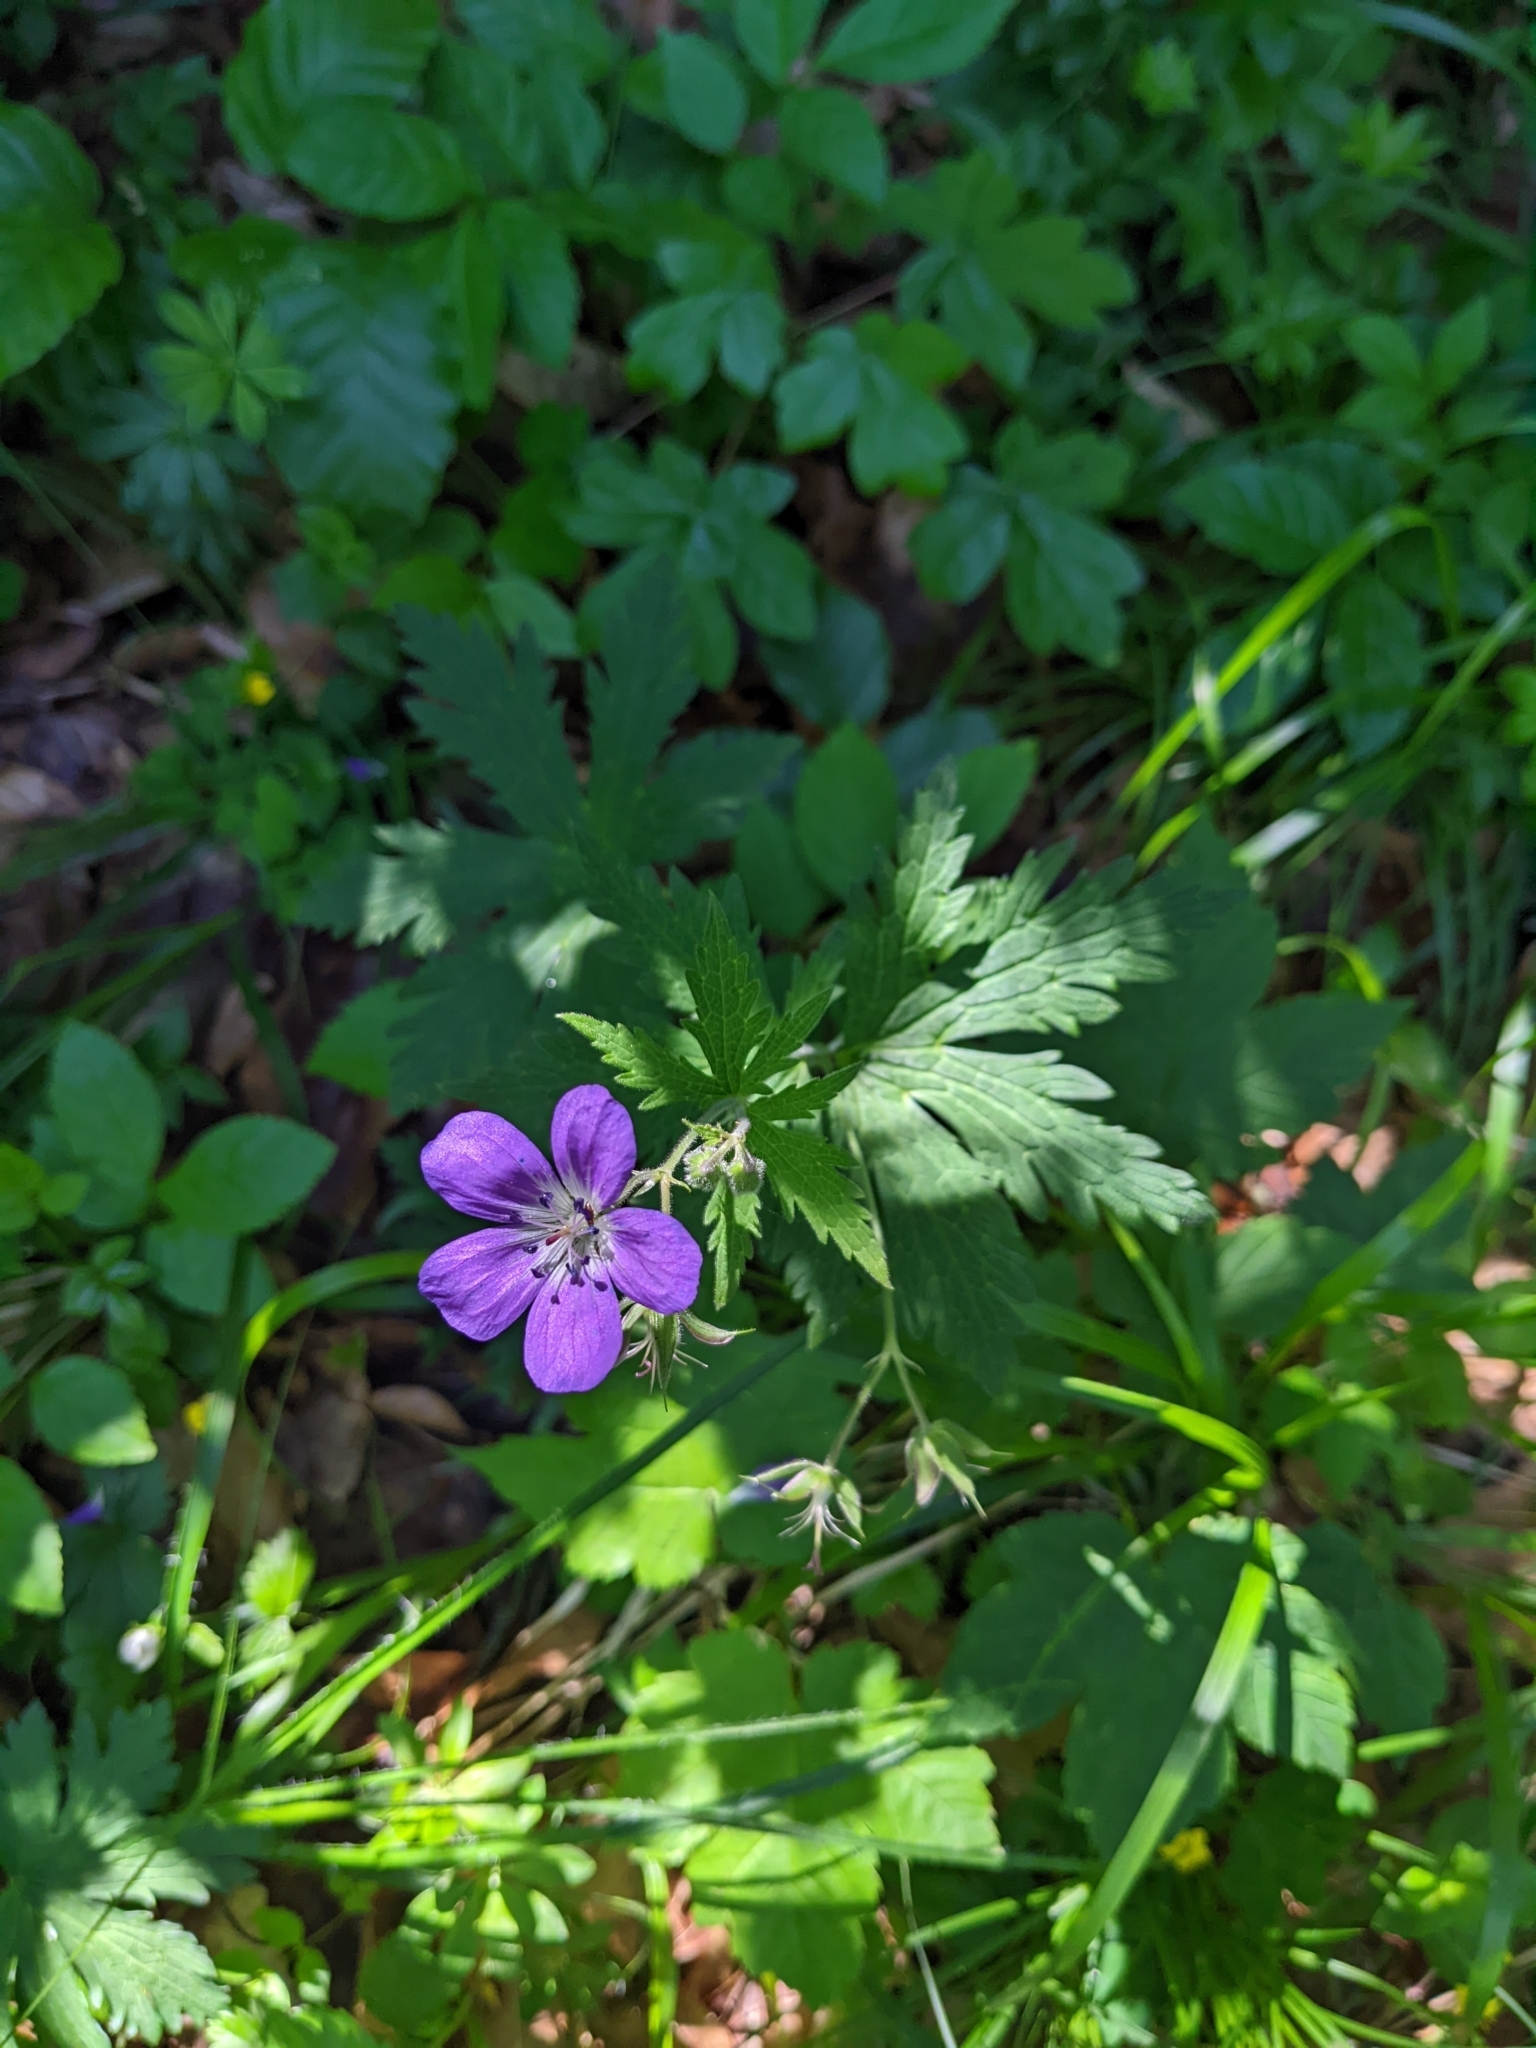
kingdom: Plantae
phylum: Tracheophyta
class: Magnoliopsida
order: Geraniales
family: Geraniaceae
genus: Geranium
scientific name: Geranium sylvaticum
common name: Wood crane's-bill
